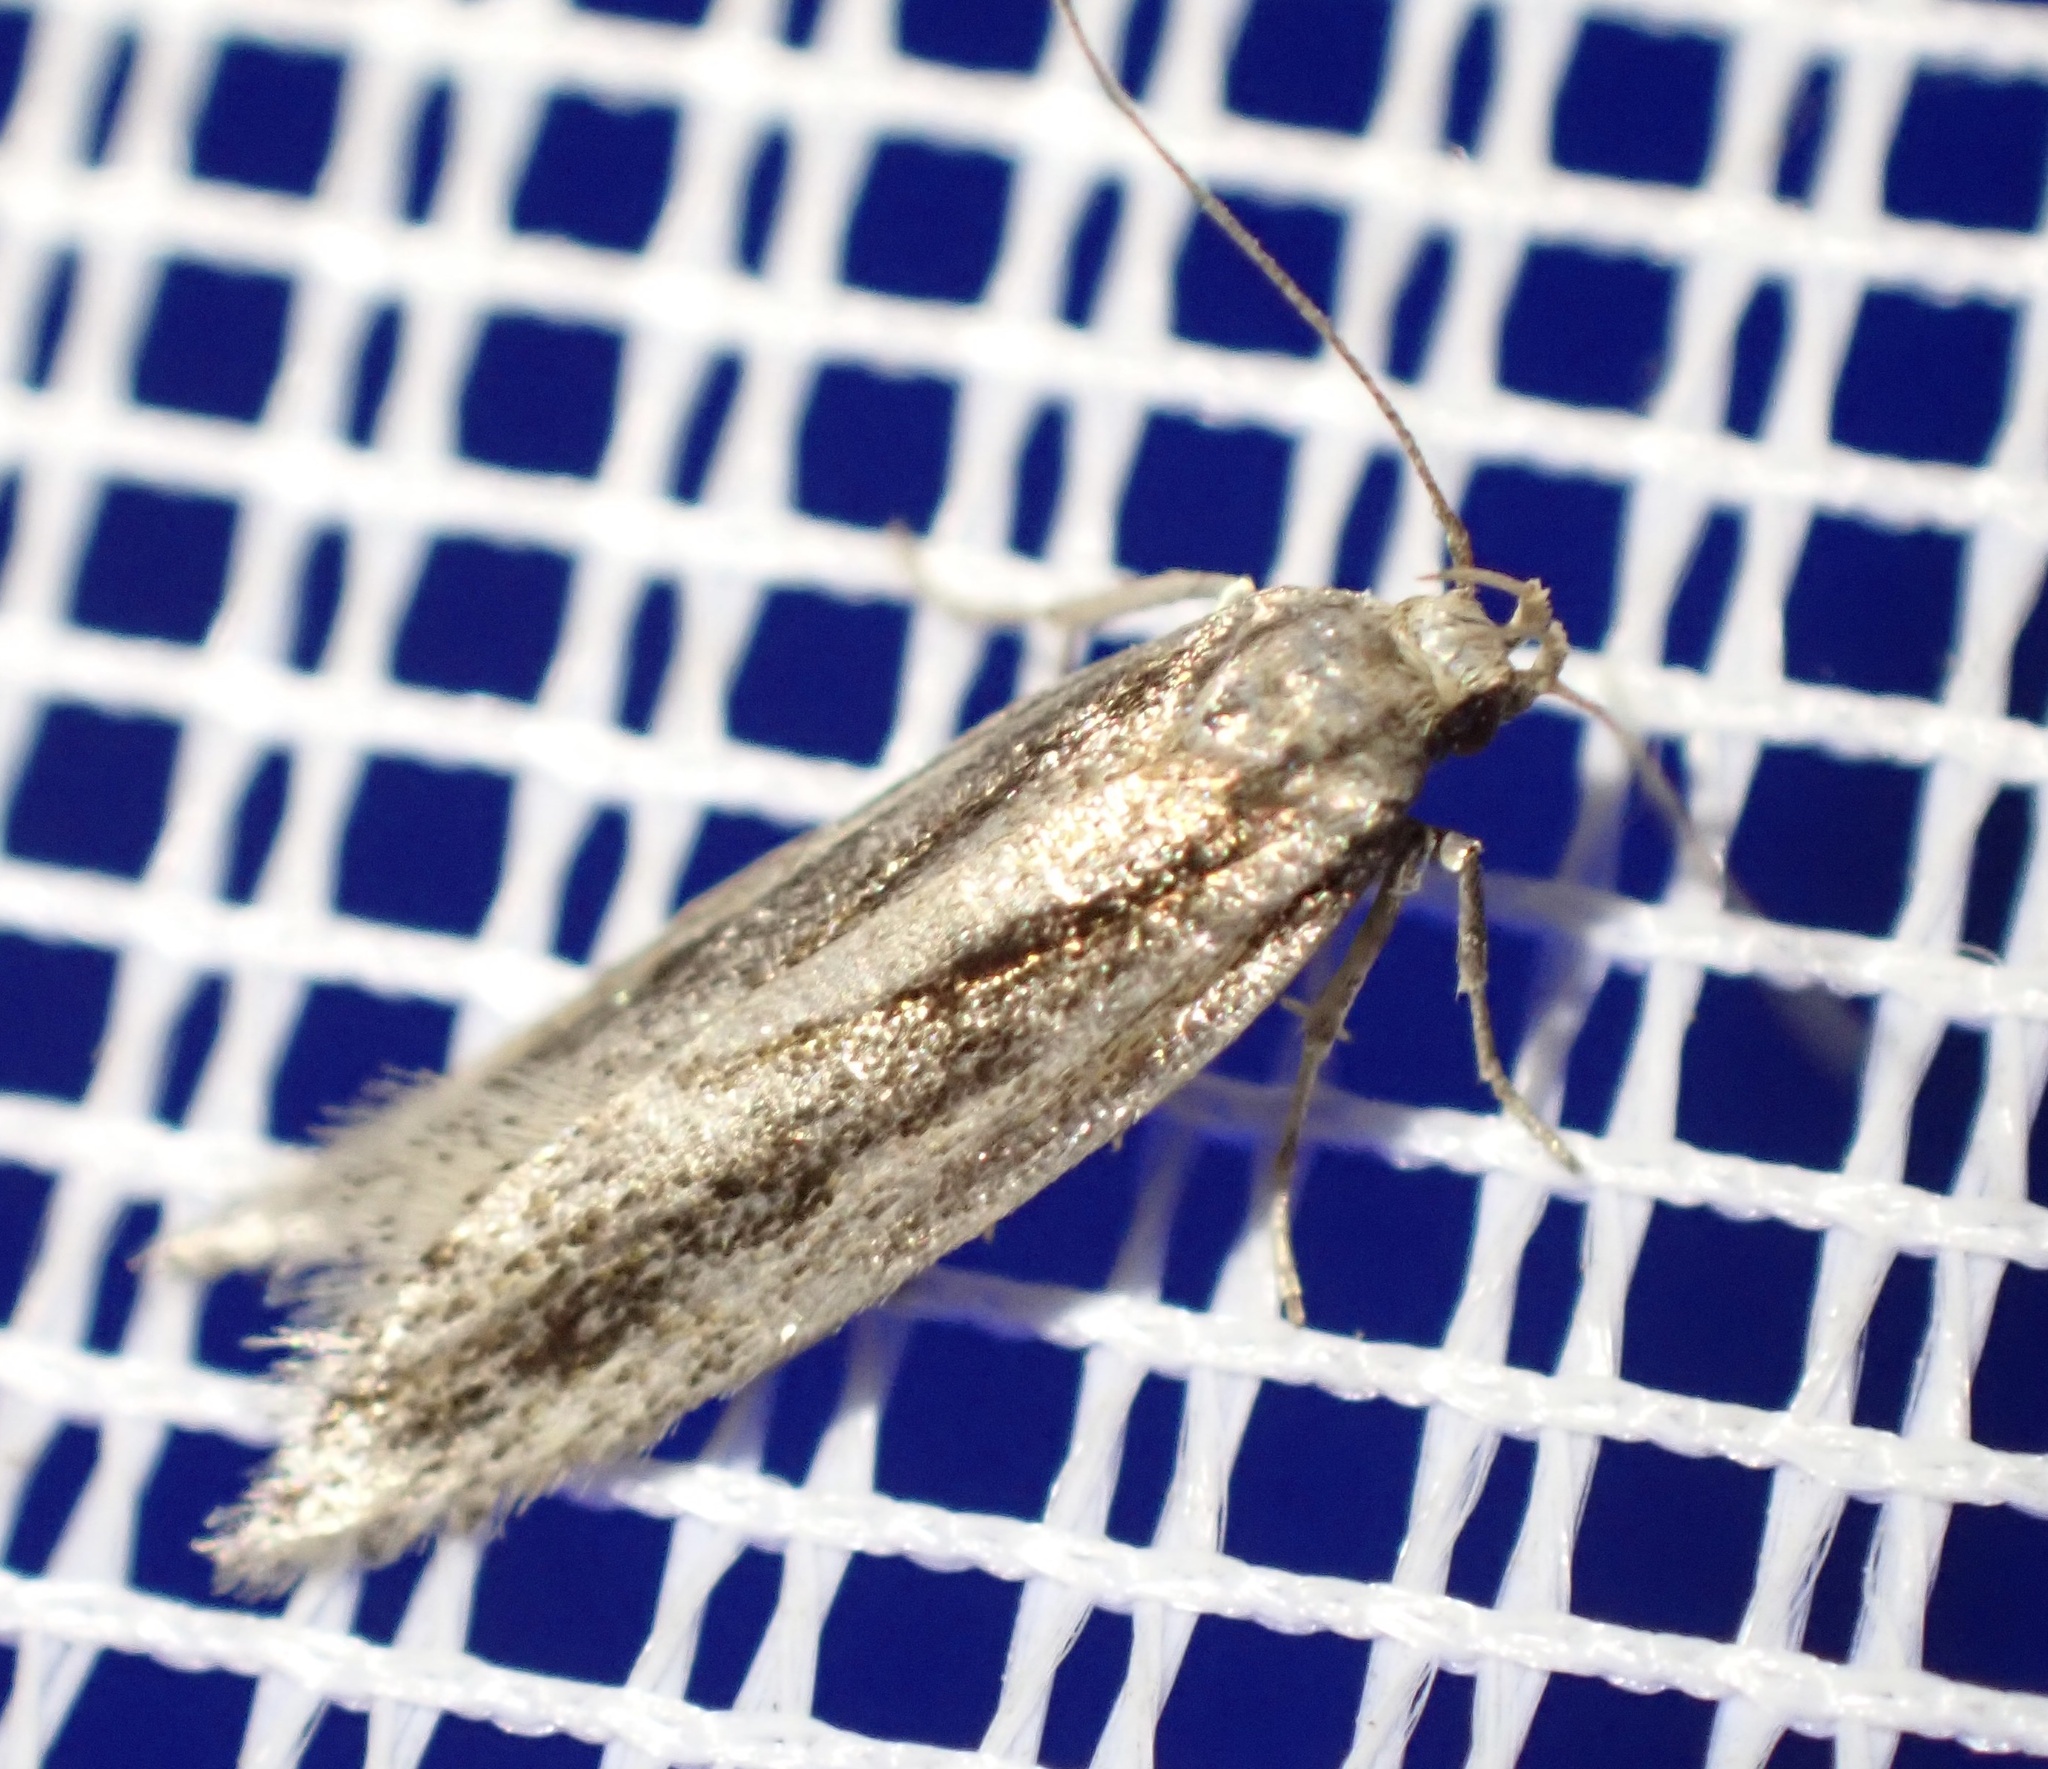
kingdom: Animalia
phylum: Arthropoda
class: Insecta
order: Lepidoptera
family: Gelechiidae
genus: Mirificarma
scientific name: Mirificarma mulinella
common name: Gorse groundling
